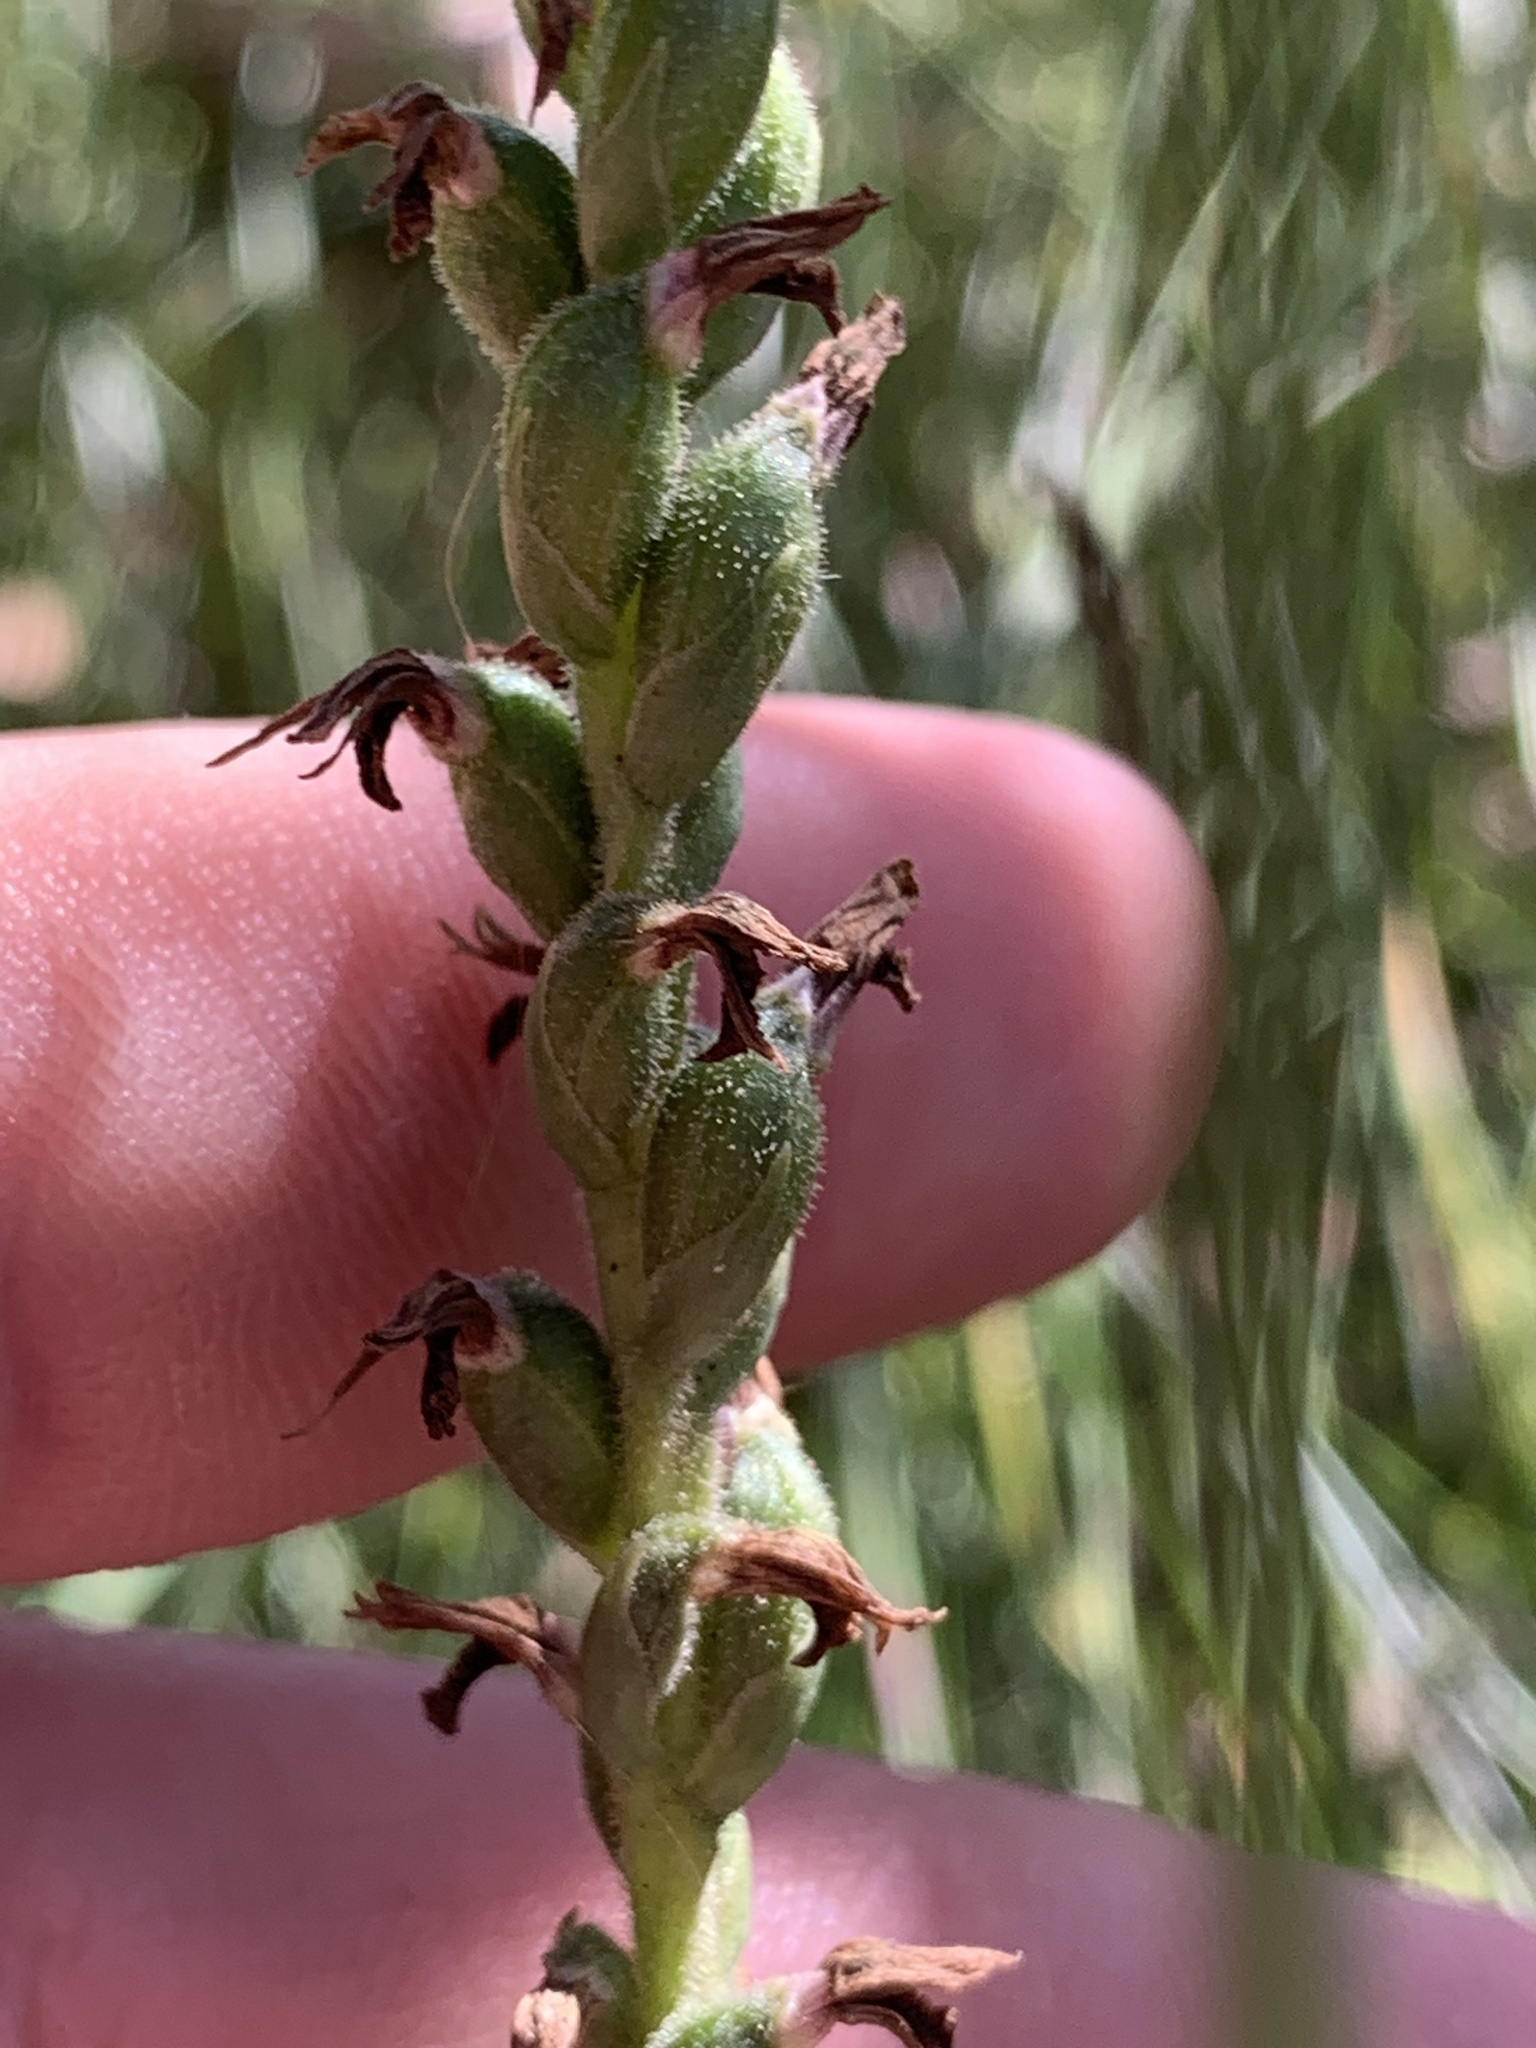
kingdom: Plantae
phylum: Tracheophyta
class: Liliopsida
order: Asparagales
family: Orchidaceae
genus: Spiranthes
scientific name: Spiranthes australis
